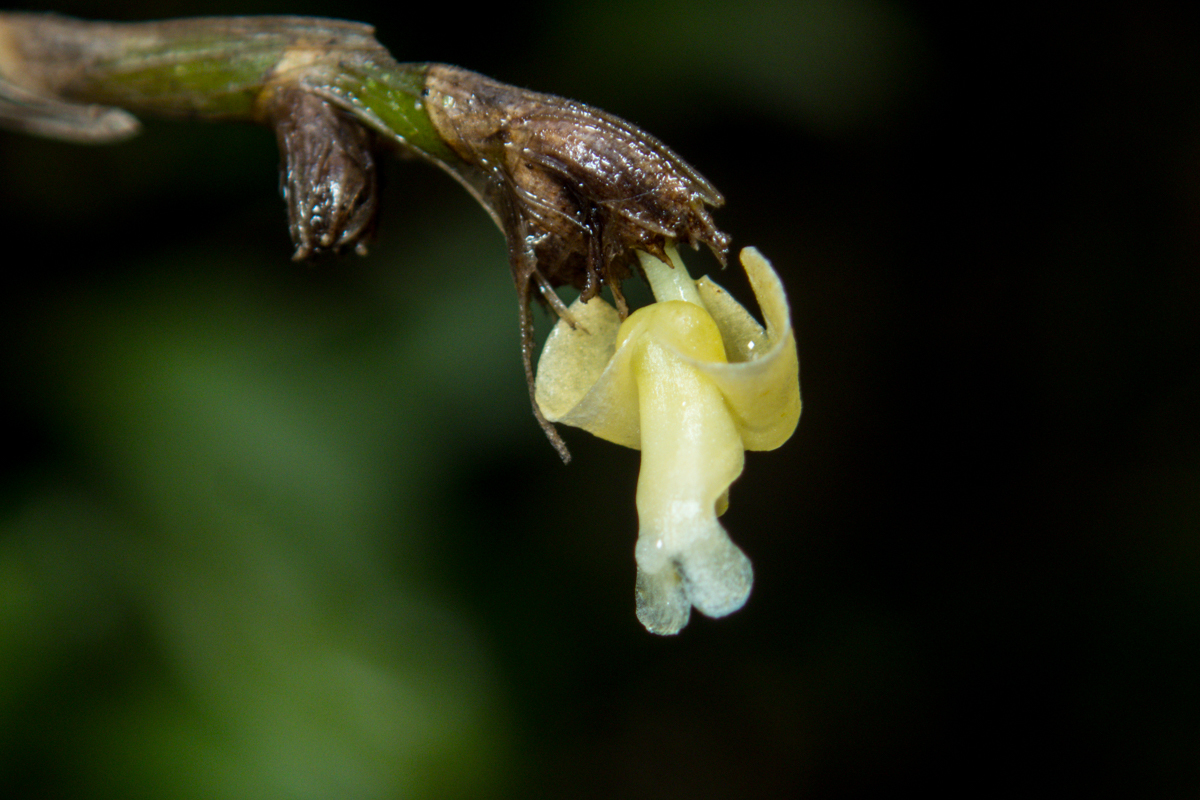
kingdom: Plantae
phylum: Tracheophyta
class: Liliopsida
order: Asparagales
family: Orchidaceae
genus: Dendrobium
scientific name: Dendrobium aloifolium
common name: Aloe-like dendrobium
